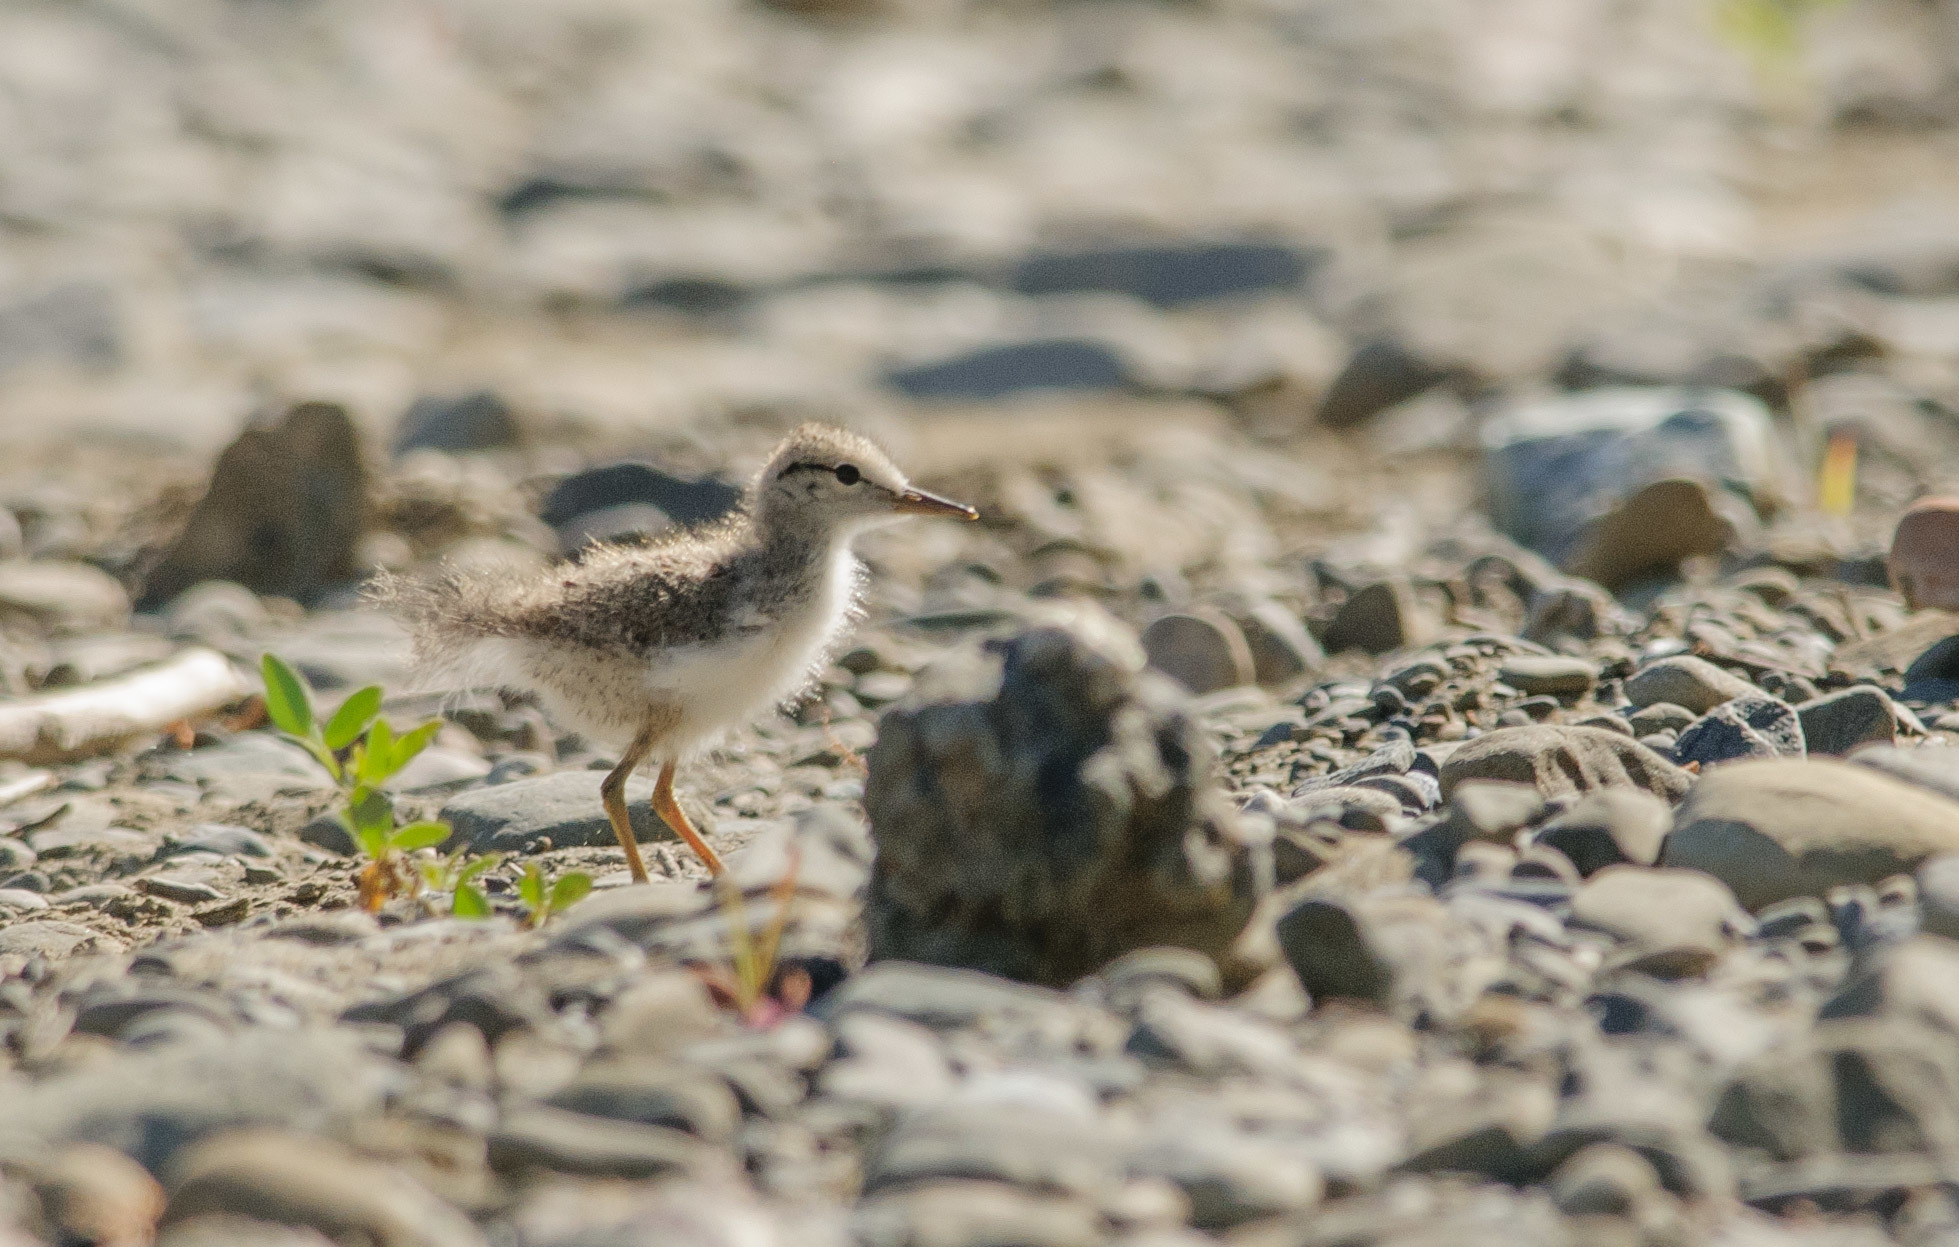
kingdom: Animalia
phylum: Chordata
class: Aves
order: Charadriiformes
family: Scolopacidae
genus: Actitis
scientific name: Actitis macularius
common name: Spotted sandpiper
